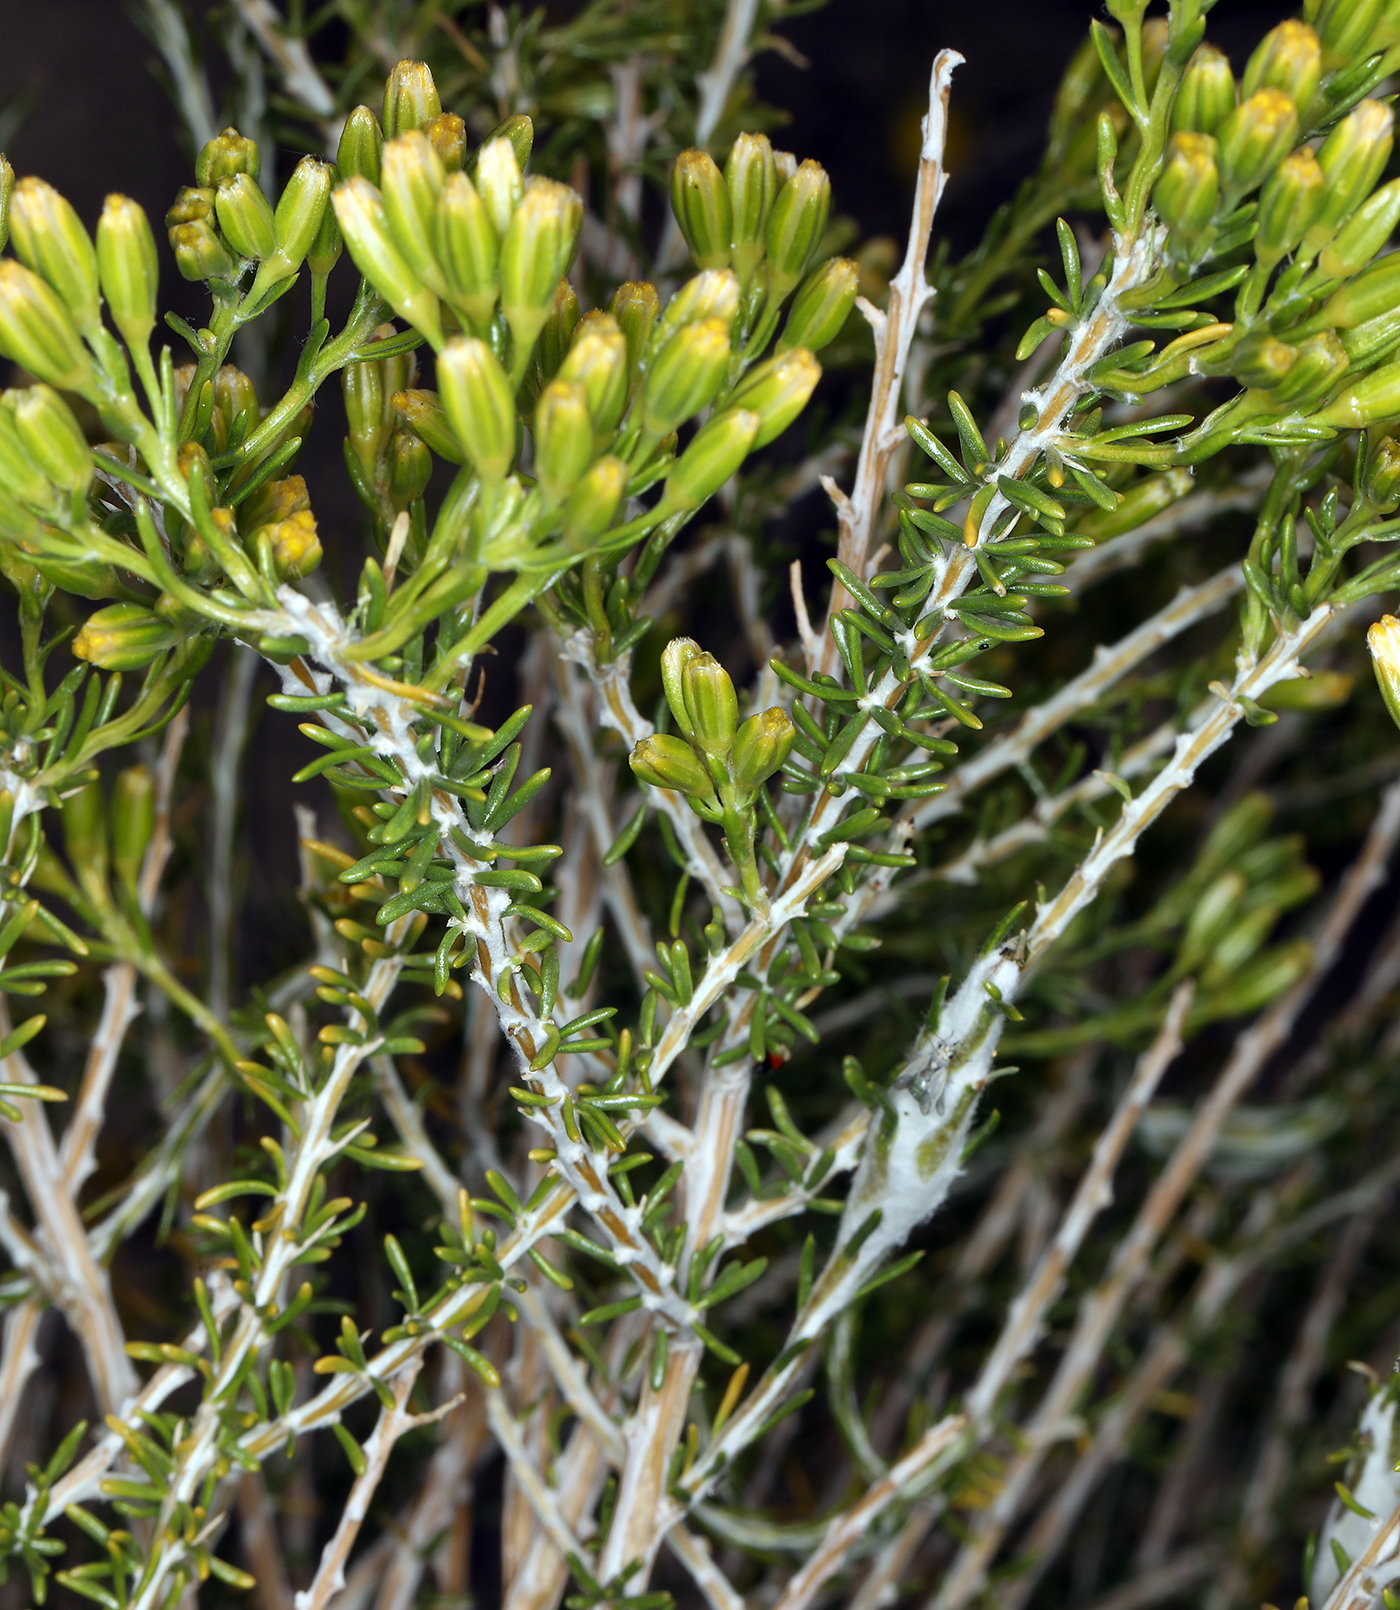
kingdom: Plantae
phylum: Tracheophyta
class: Magnoliopsida
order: Asterales
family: Asteraceae
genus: Tetradymia
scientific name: Tetradymia glabrata
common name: Smooth tetradymia
